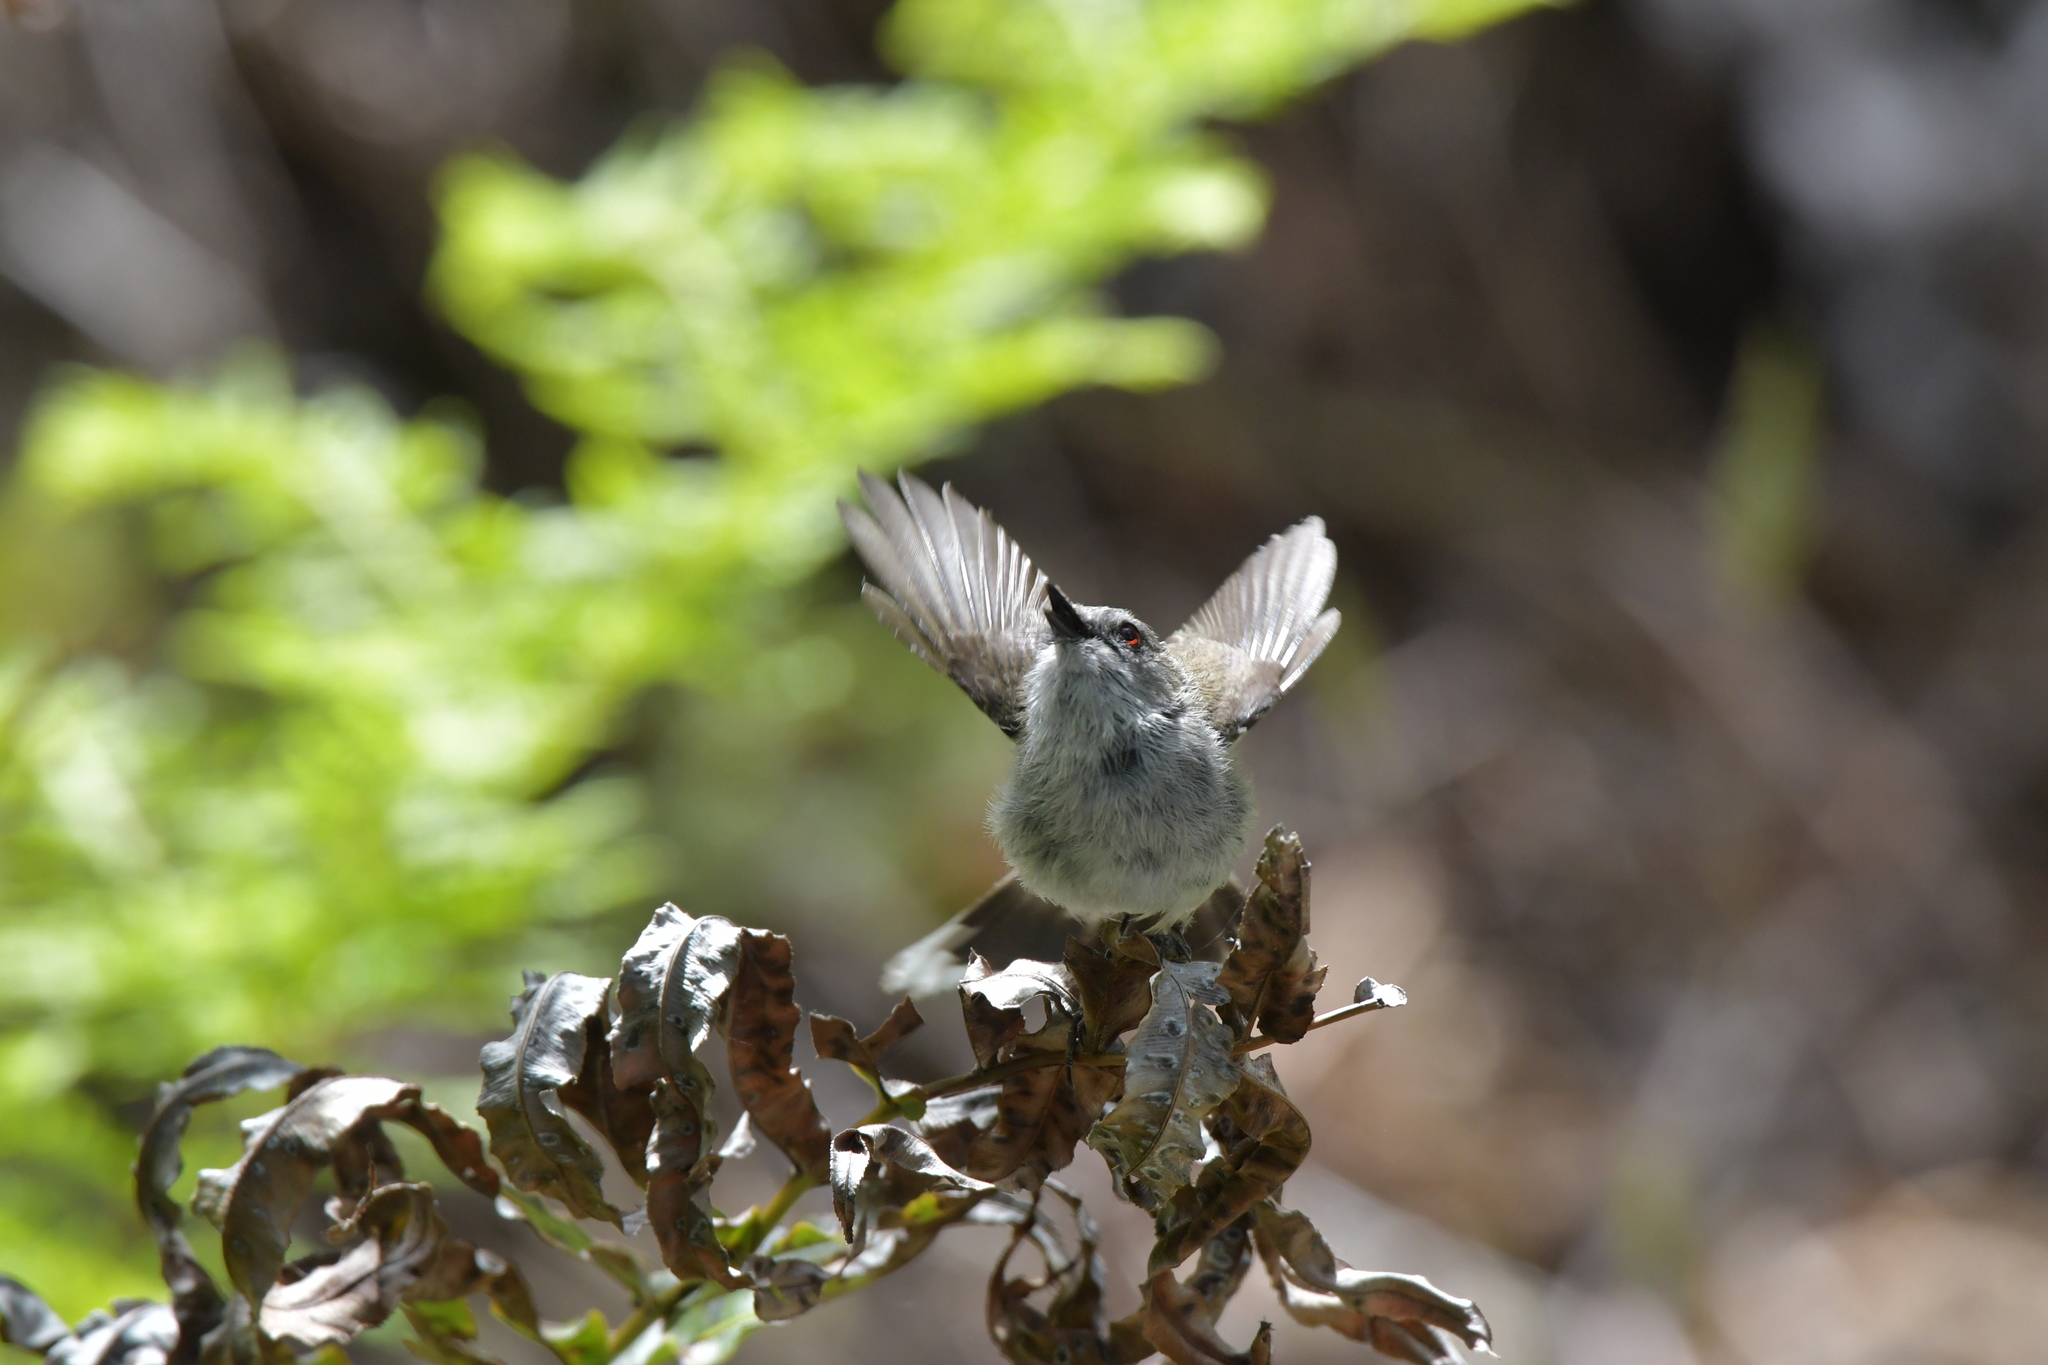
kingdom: Animalia
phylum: Chordata
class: Aves
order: Passeriformes
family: Acanthizidae
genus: Gerygone
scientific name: Gerygone igata
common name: Grey gerygone
